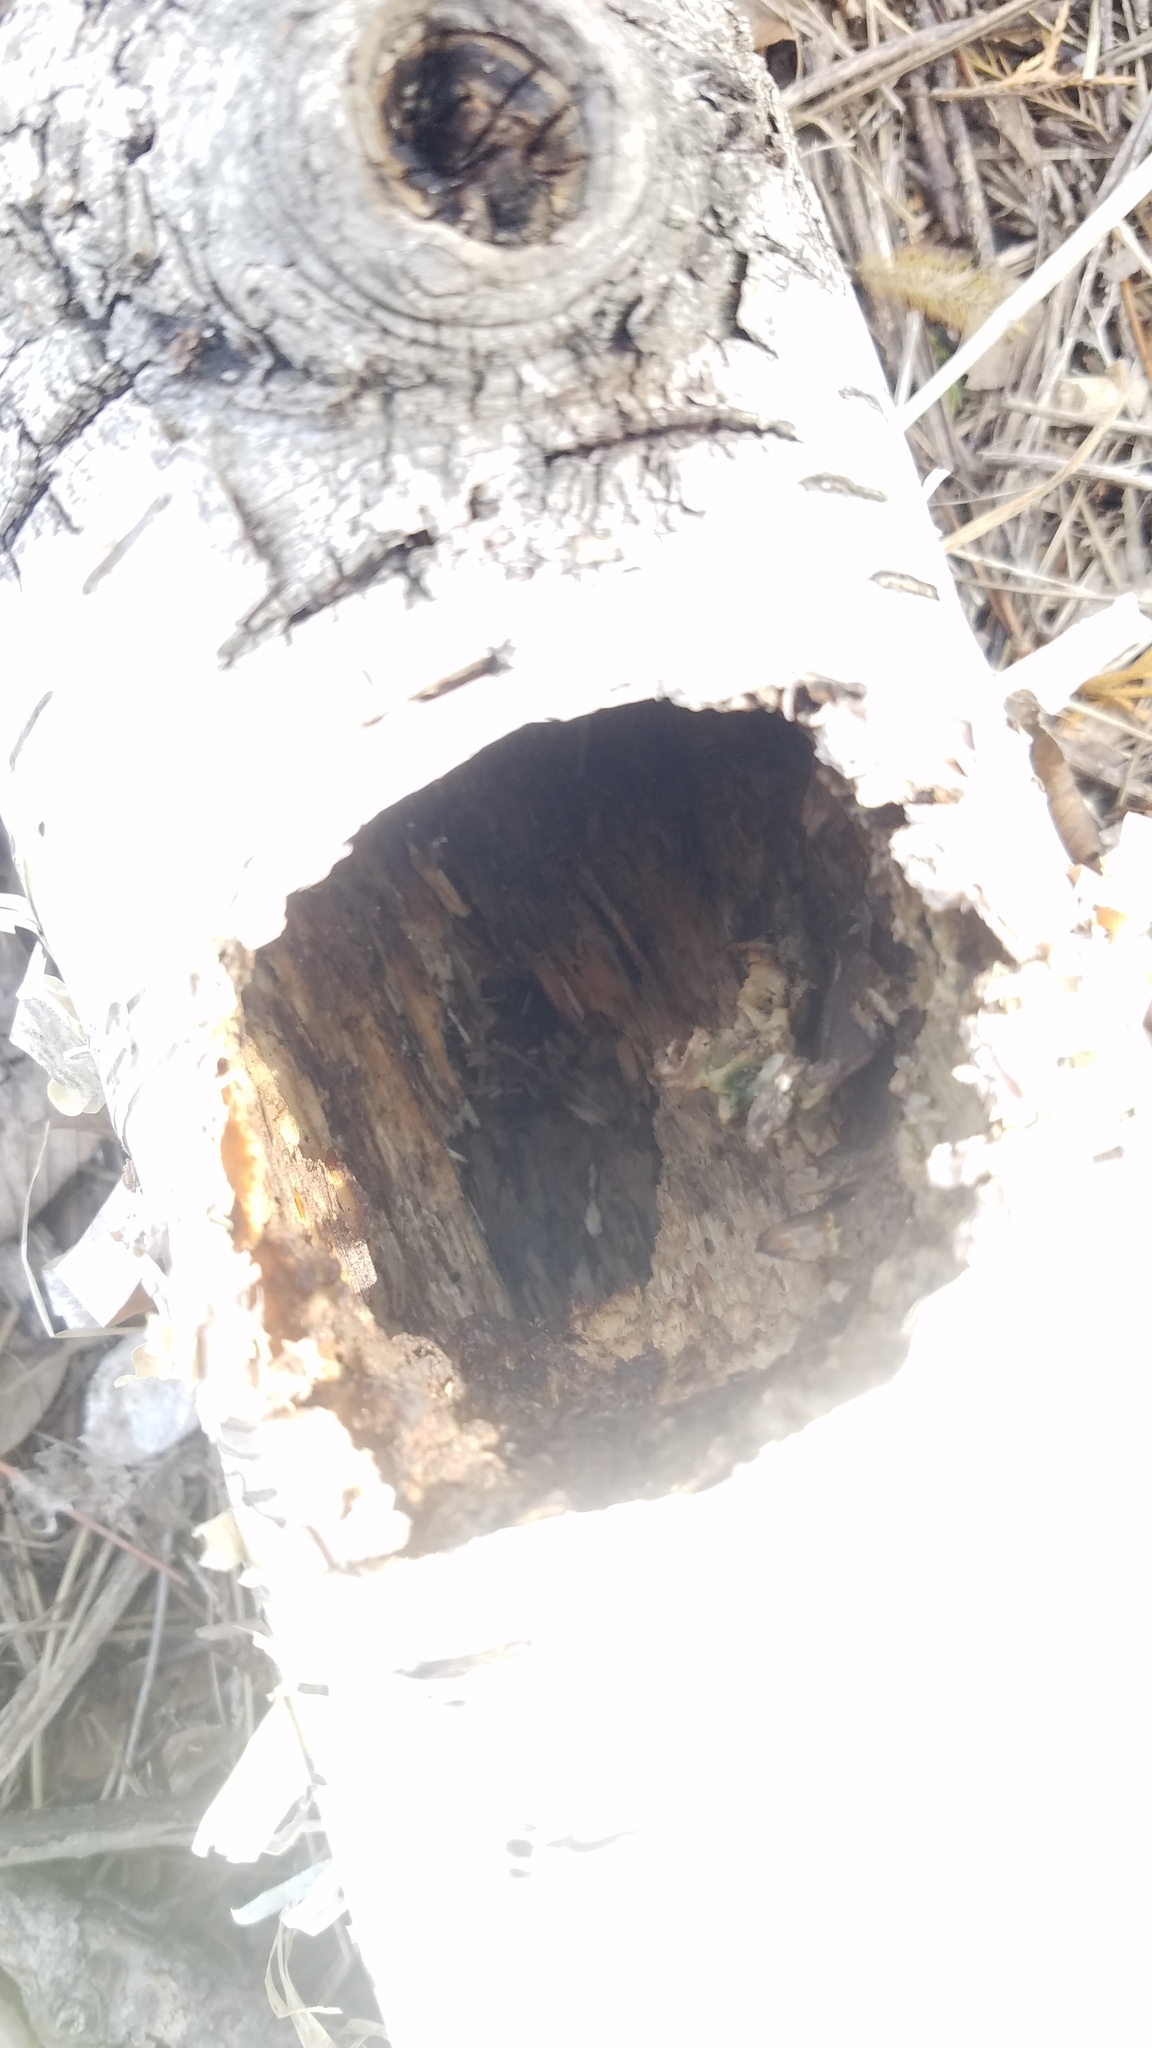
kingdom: Animalia
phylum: Chordata
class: Aves
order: Piciformes
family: Picidae
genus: Dryocopus
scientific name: Dryocopus pileatus
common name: Pileated woodpecker
